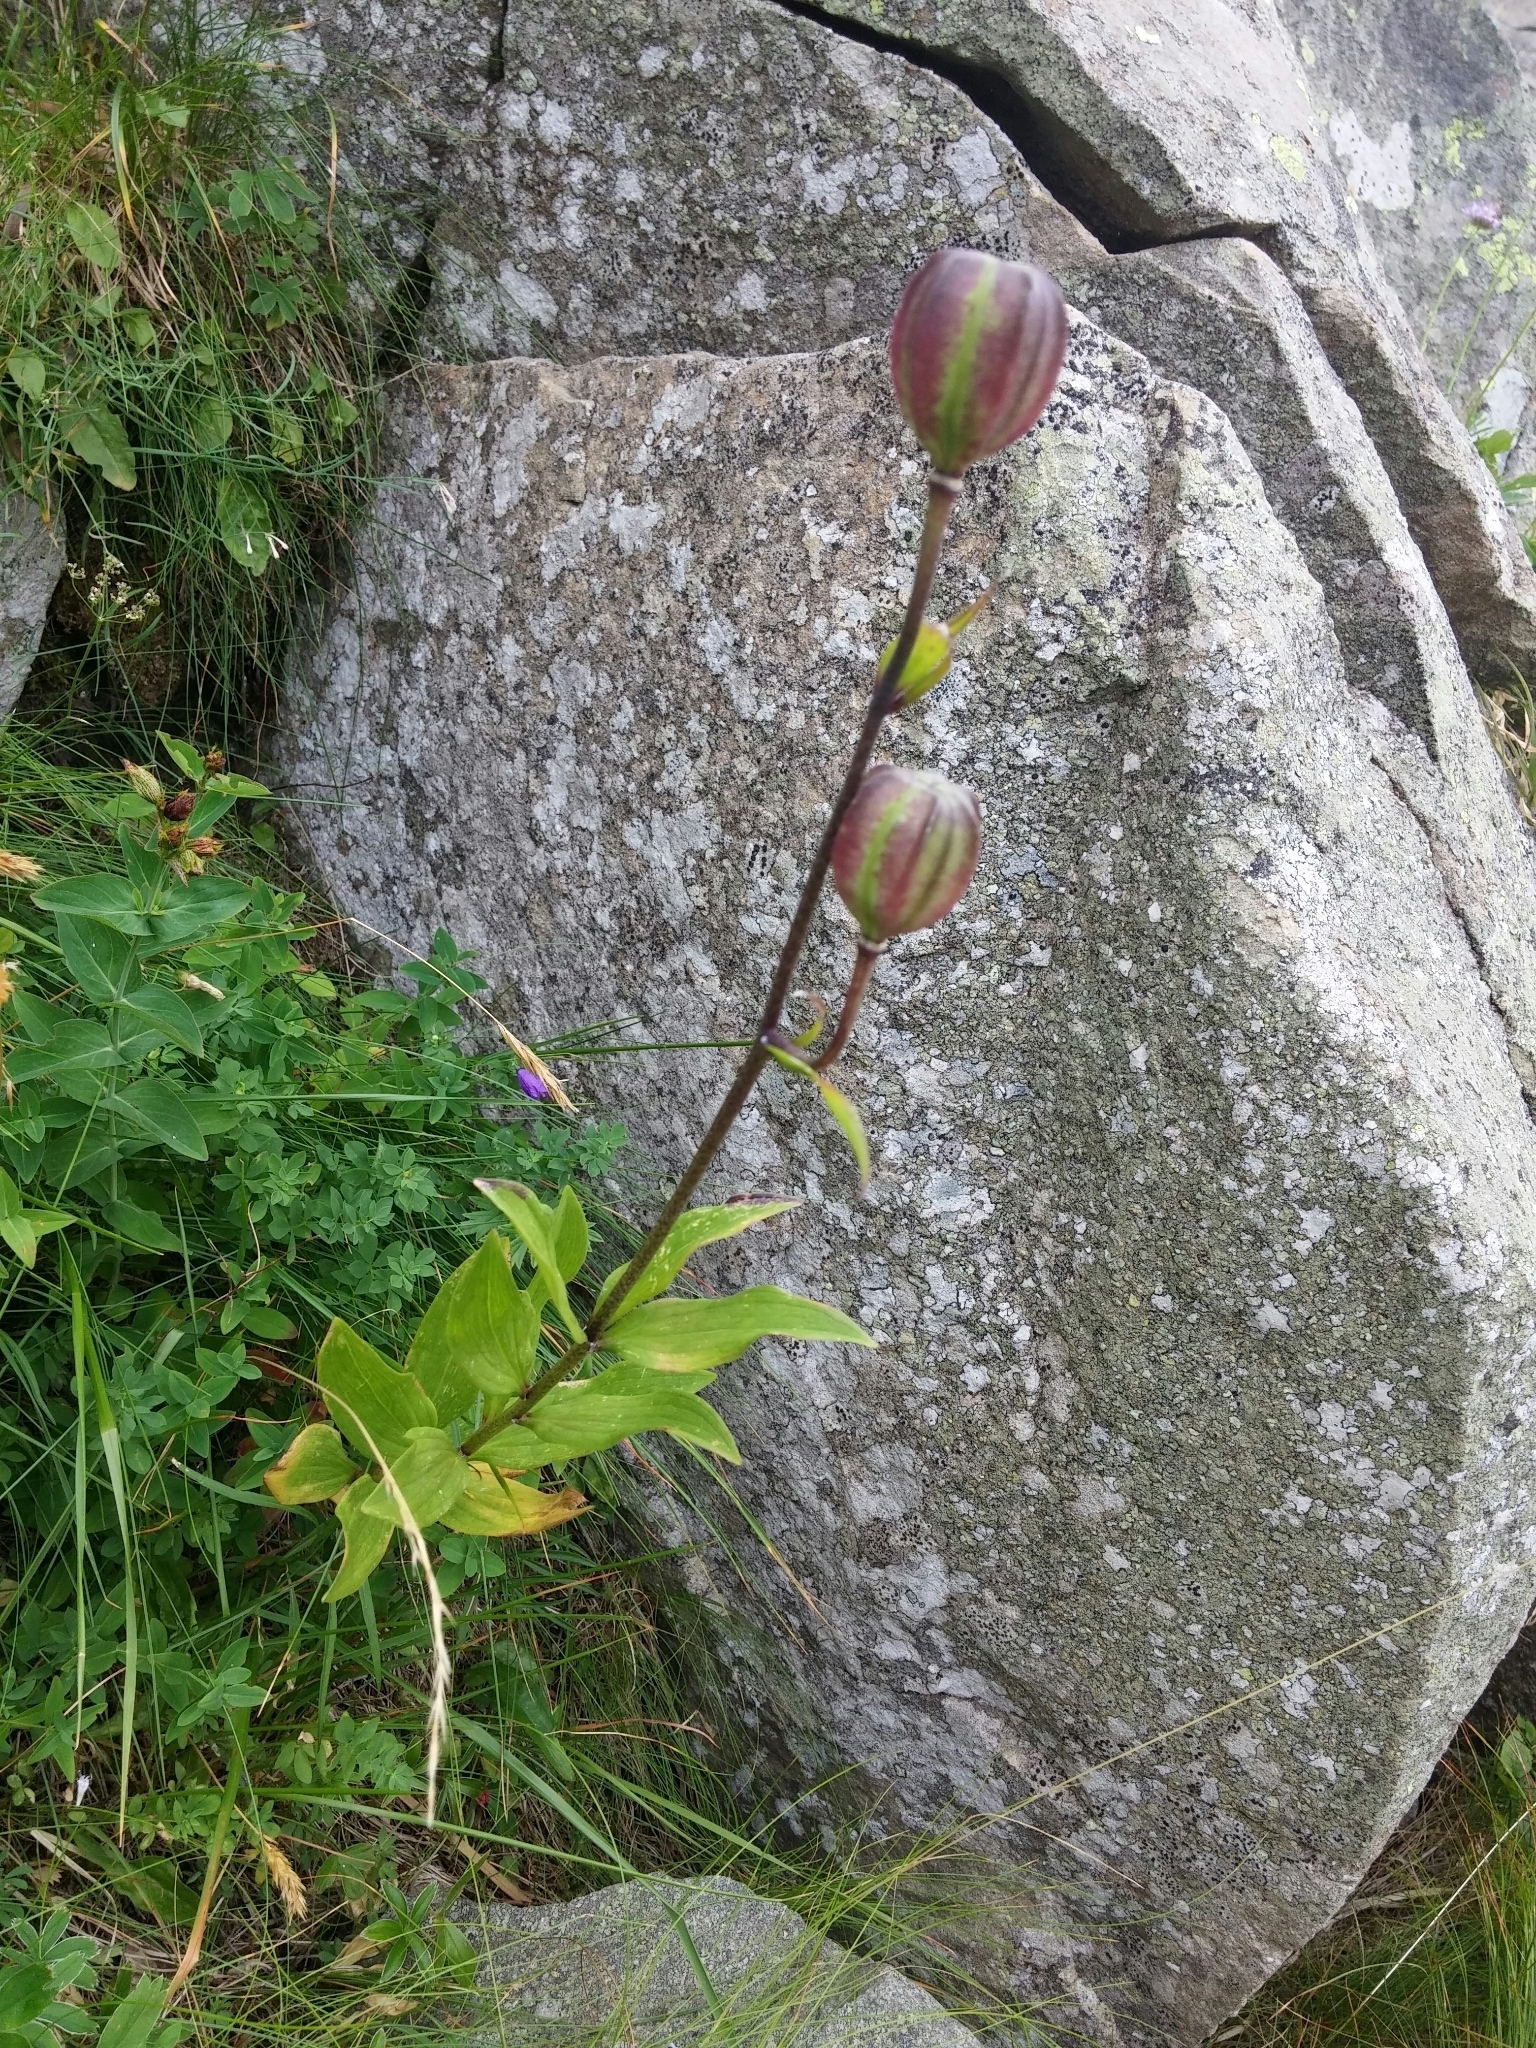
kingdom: Plantae
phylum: Tracheophyta
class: Liliopsida
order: Liliales
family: Liliaceae
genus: Lilium
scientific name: Lilium martagon
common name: Martagon lily
